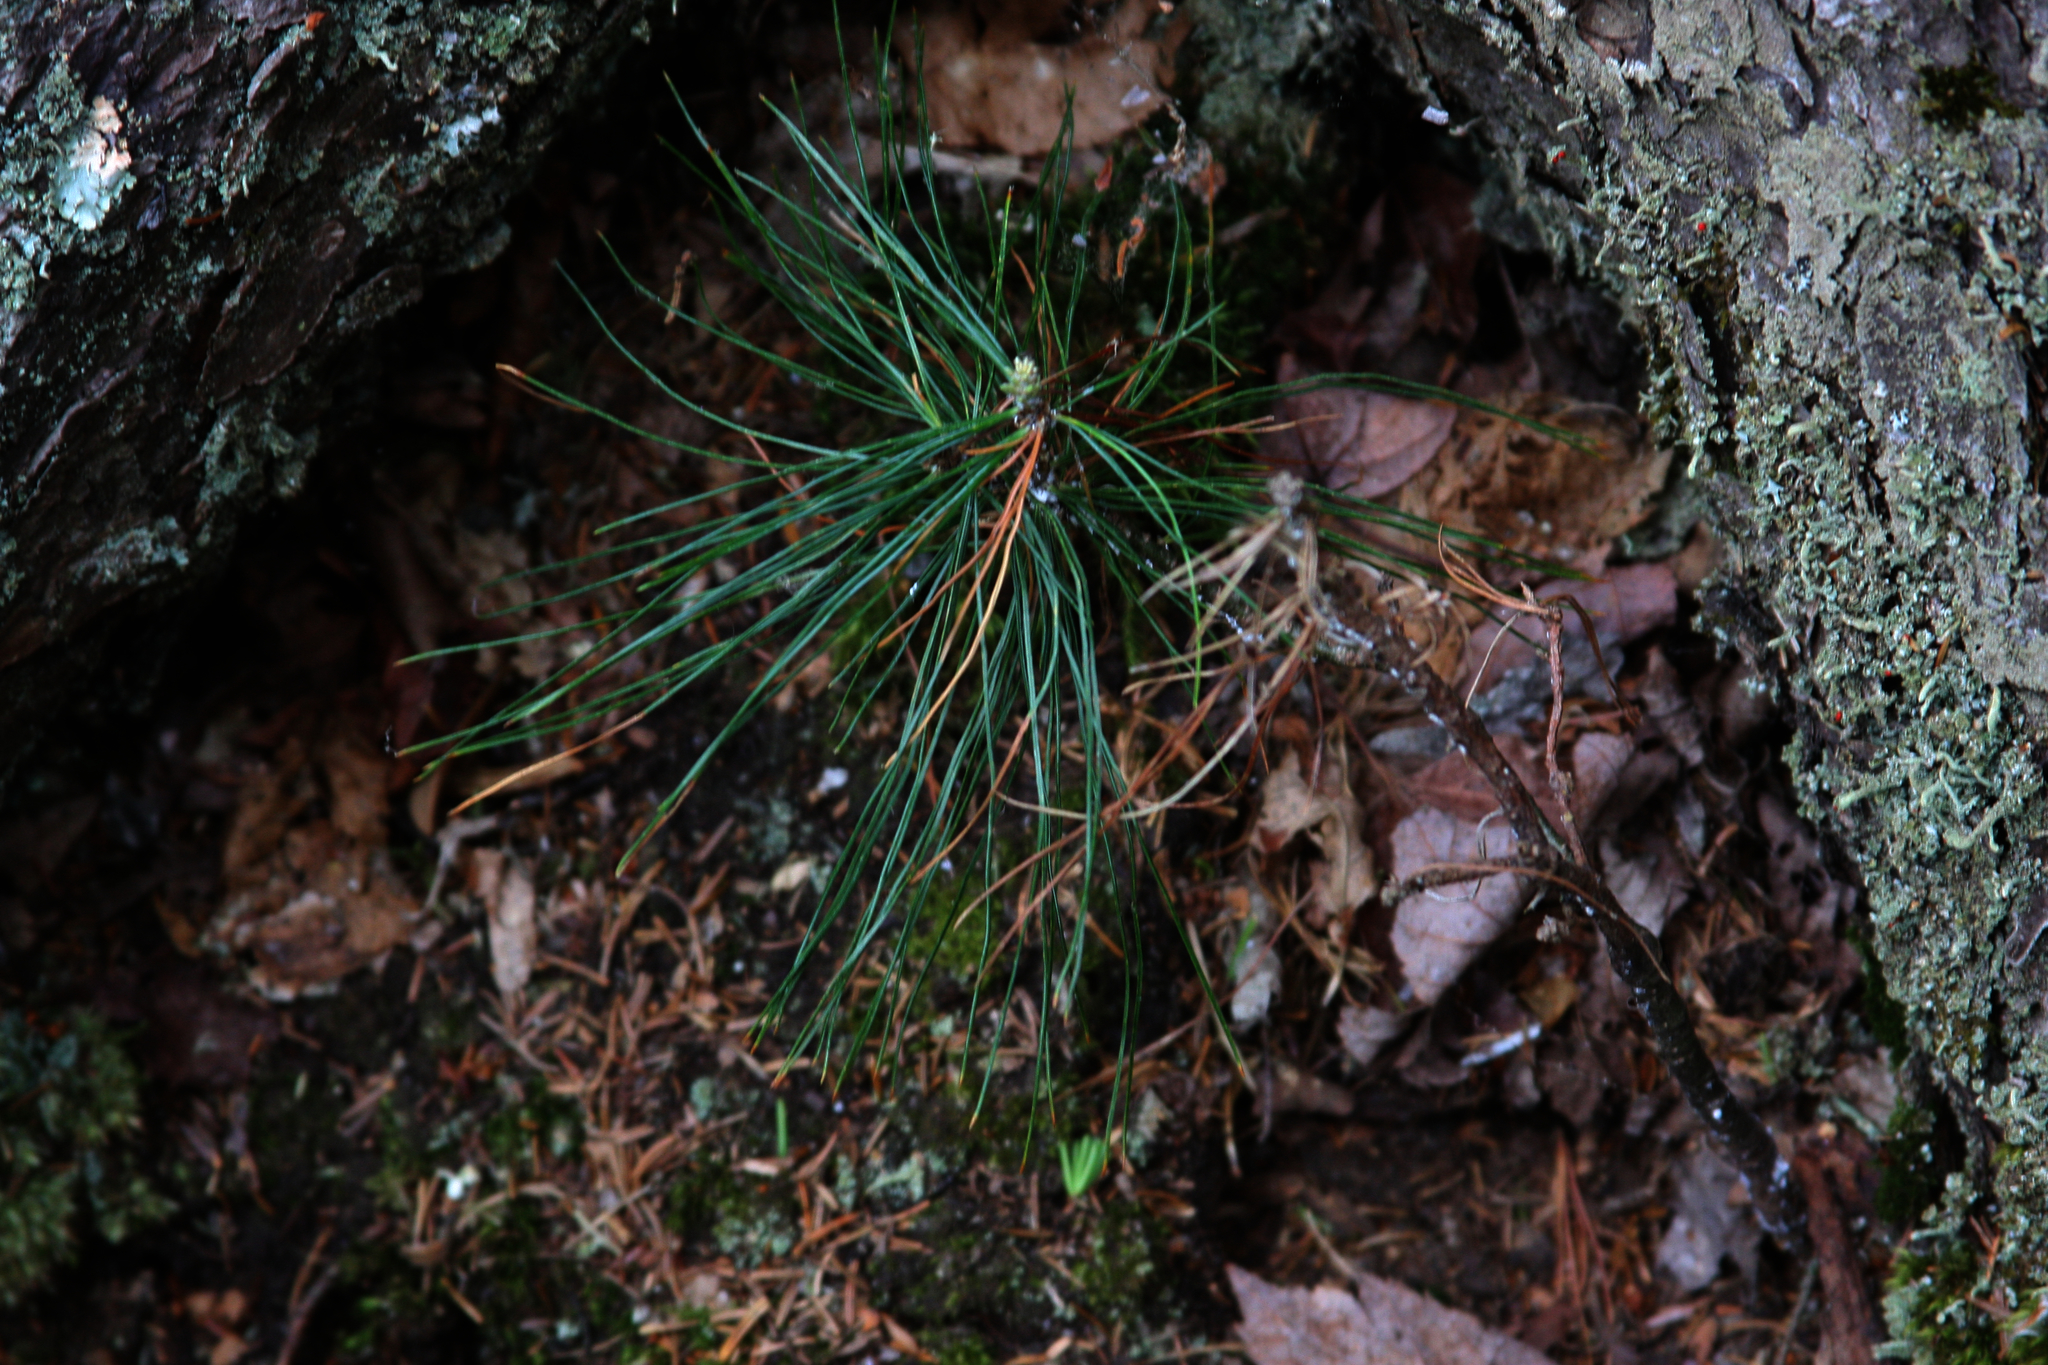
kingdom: Plantae
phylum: Tracheophyta
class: Pinopsida
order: Pinales
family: Pinaceae
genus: Pinus
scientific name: Pinus strobus
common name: Weymouth pine
